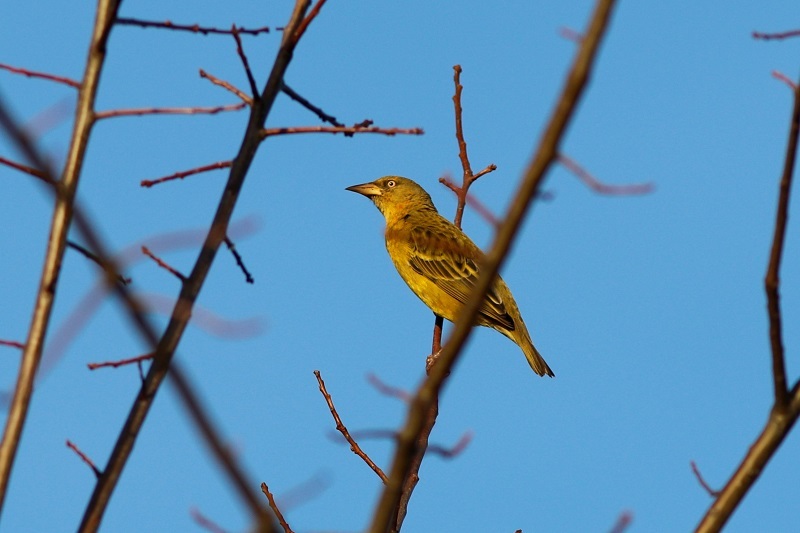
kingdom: Animalia
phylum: Chordata
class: Aves
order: Passeriformes
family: Ploceidae
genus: Ploceus
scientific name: Ploceus capensis
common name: Cape weaver
